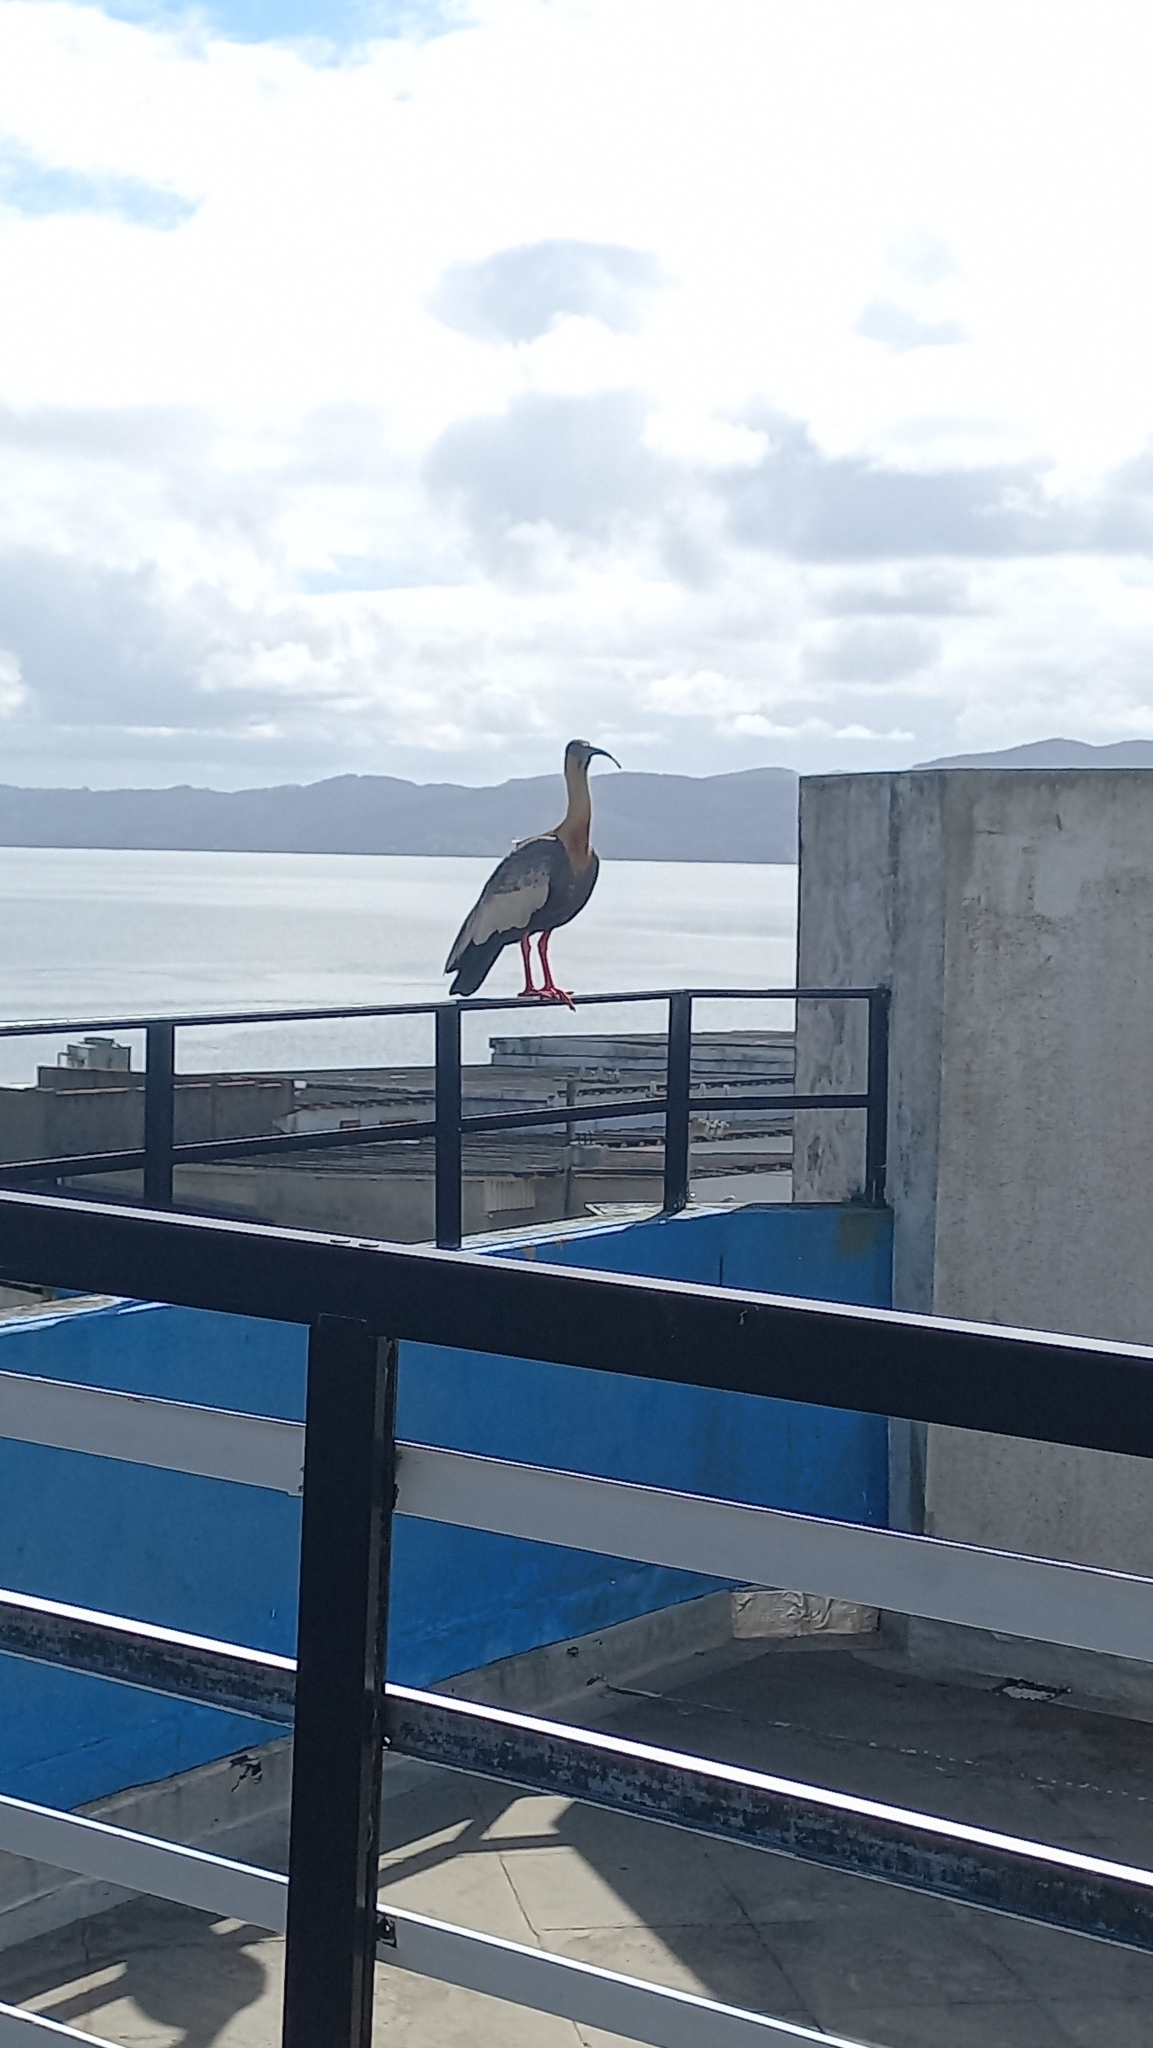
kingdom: Animalia
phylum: Chordata
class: Aves
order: Pelecaniformes
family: Threskiornithidae
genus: Theristicus
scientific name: Theristicus caudatus
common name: Buff-necked ibis
